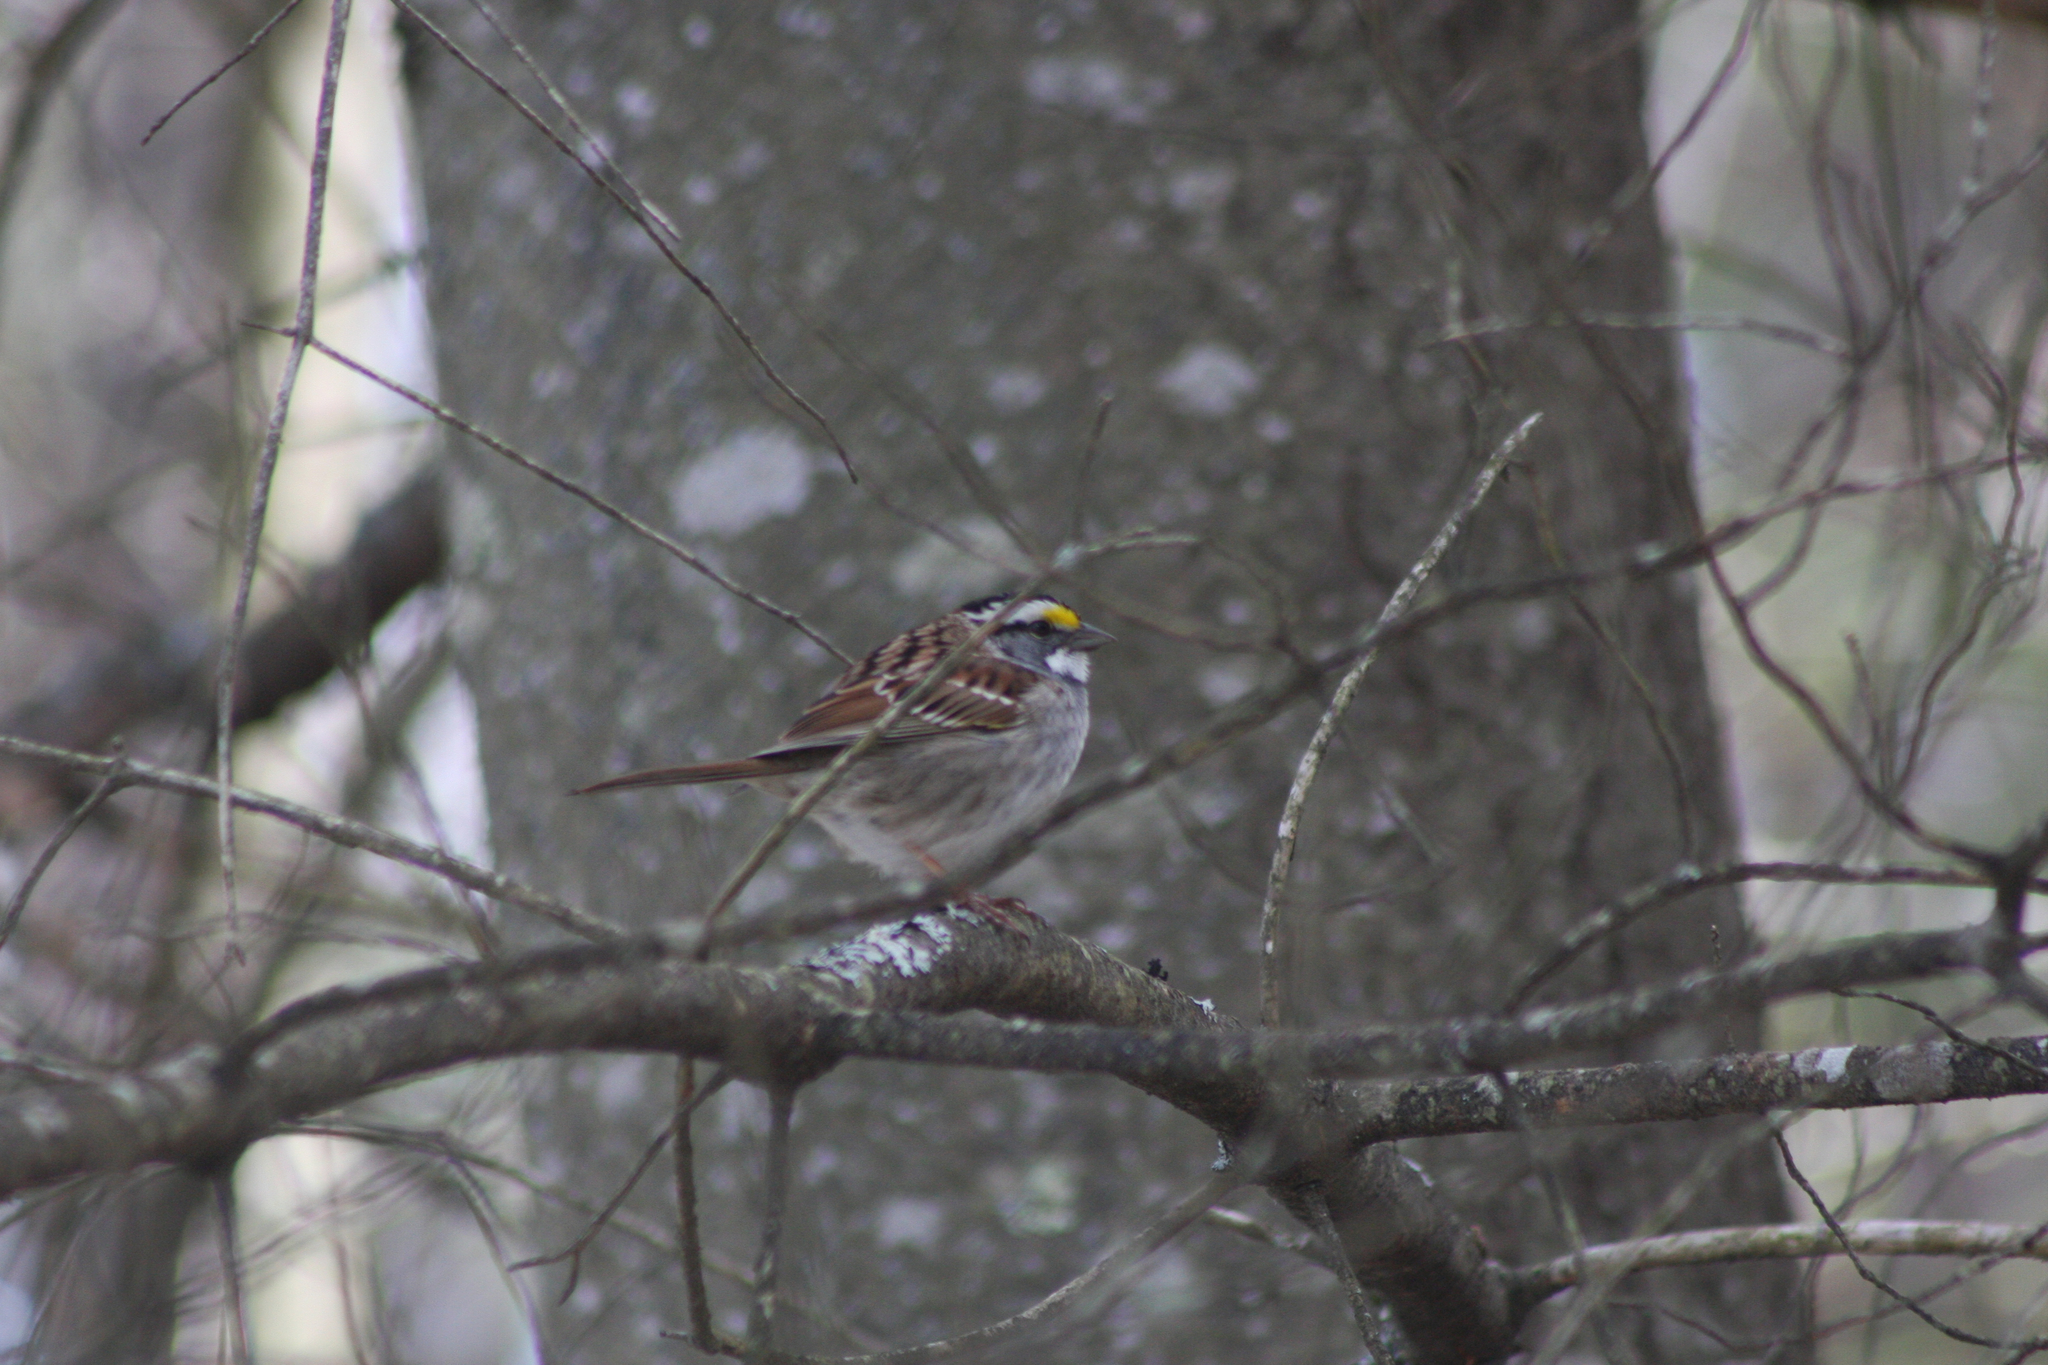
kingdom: Animalia
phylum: Chordata
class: Aves
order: Passeriformes
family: Passerellidae
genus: Zonotrichia
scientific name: Zonotrichia albicollis
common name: White-throated sparrow
